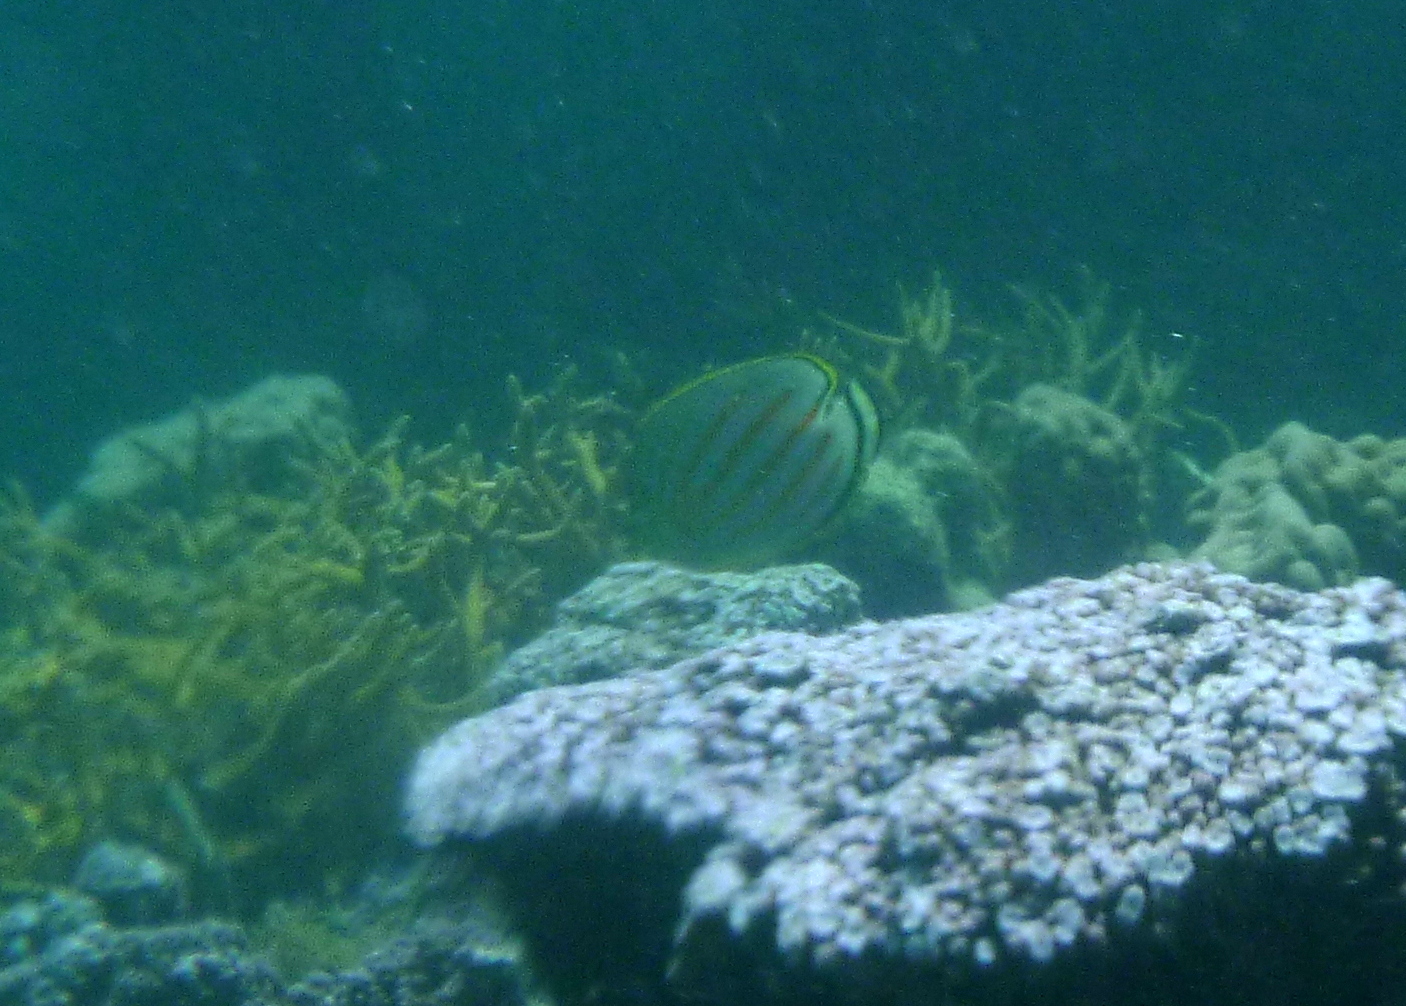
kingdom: Animalia
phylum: Chordata
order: Perciformes
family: Chaetodontidae
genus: Chaetodon
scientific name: Chaetodon ornatissimus
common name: Ornate butterflyfish
